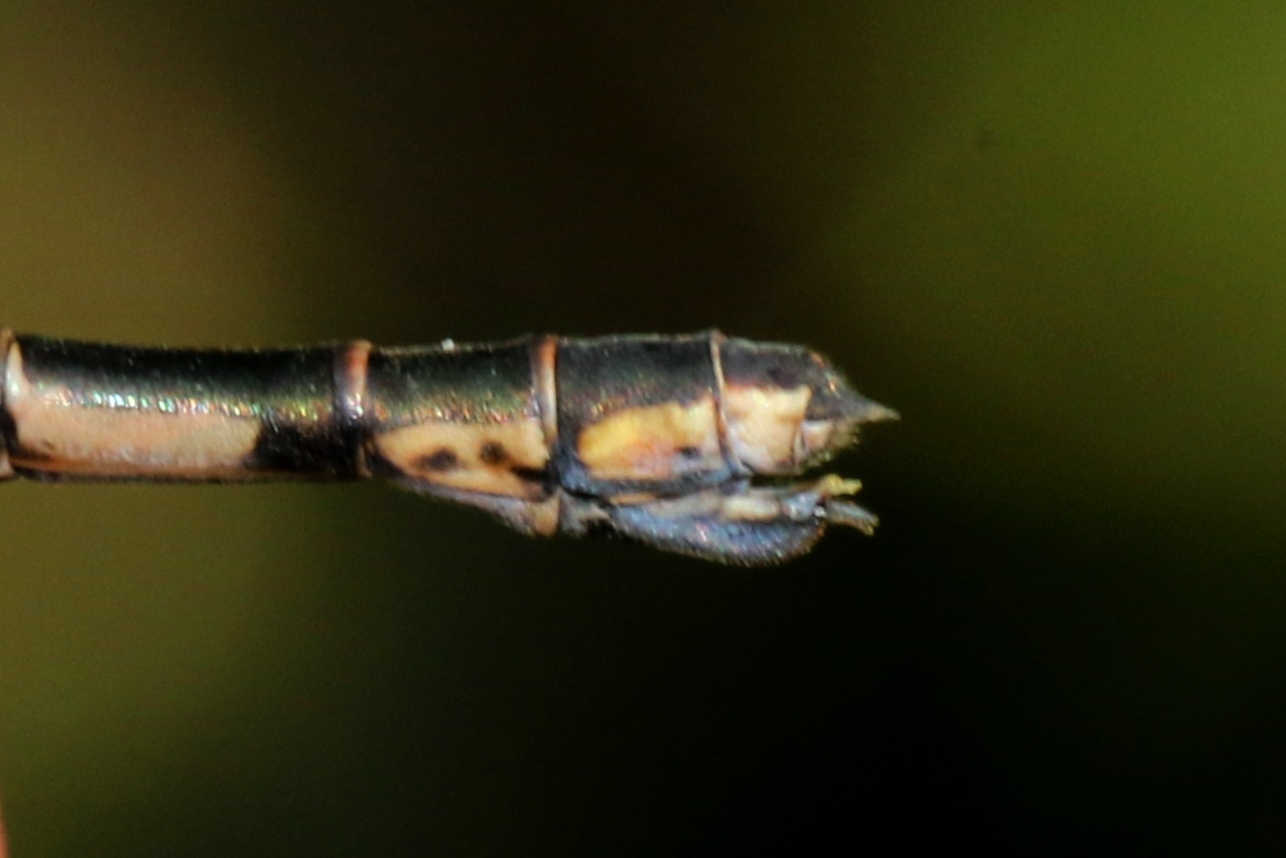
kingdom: Animalia
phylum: Arthropoda
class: Insecta
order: Odonata
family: Lestidae
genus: Lestes
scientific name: Lestes congener
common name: Spotted spreadwing
